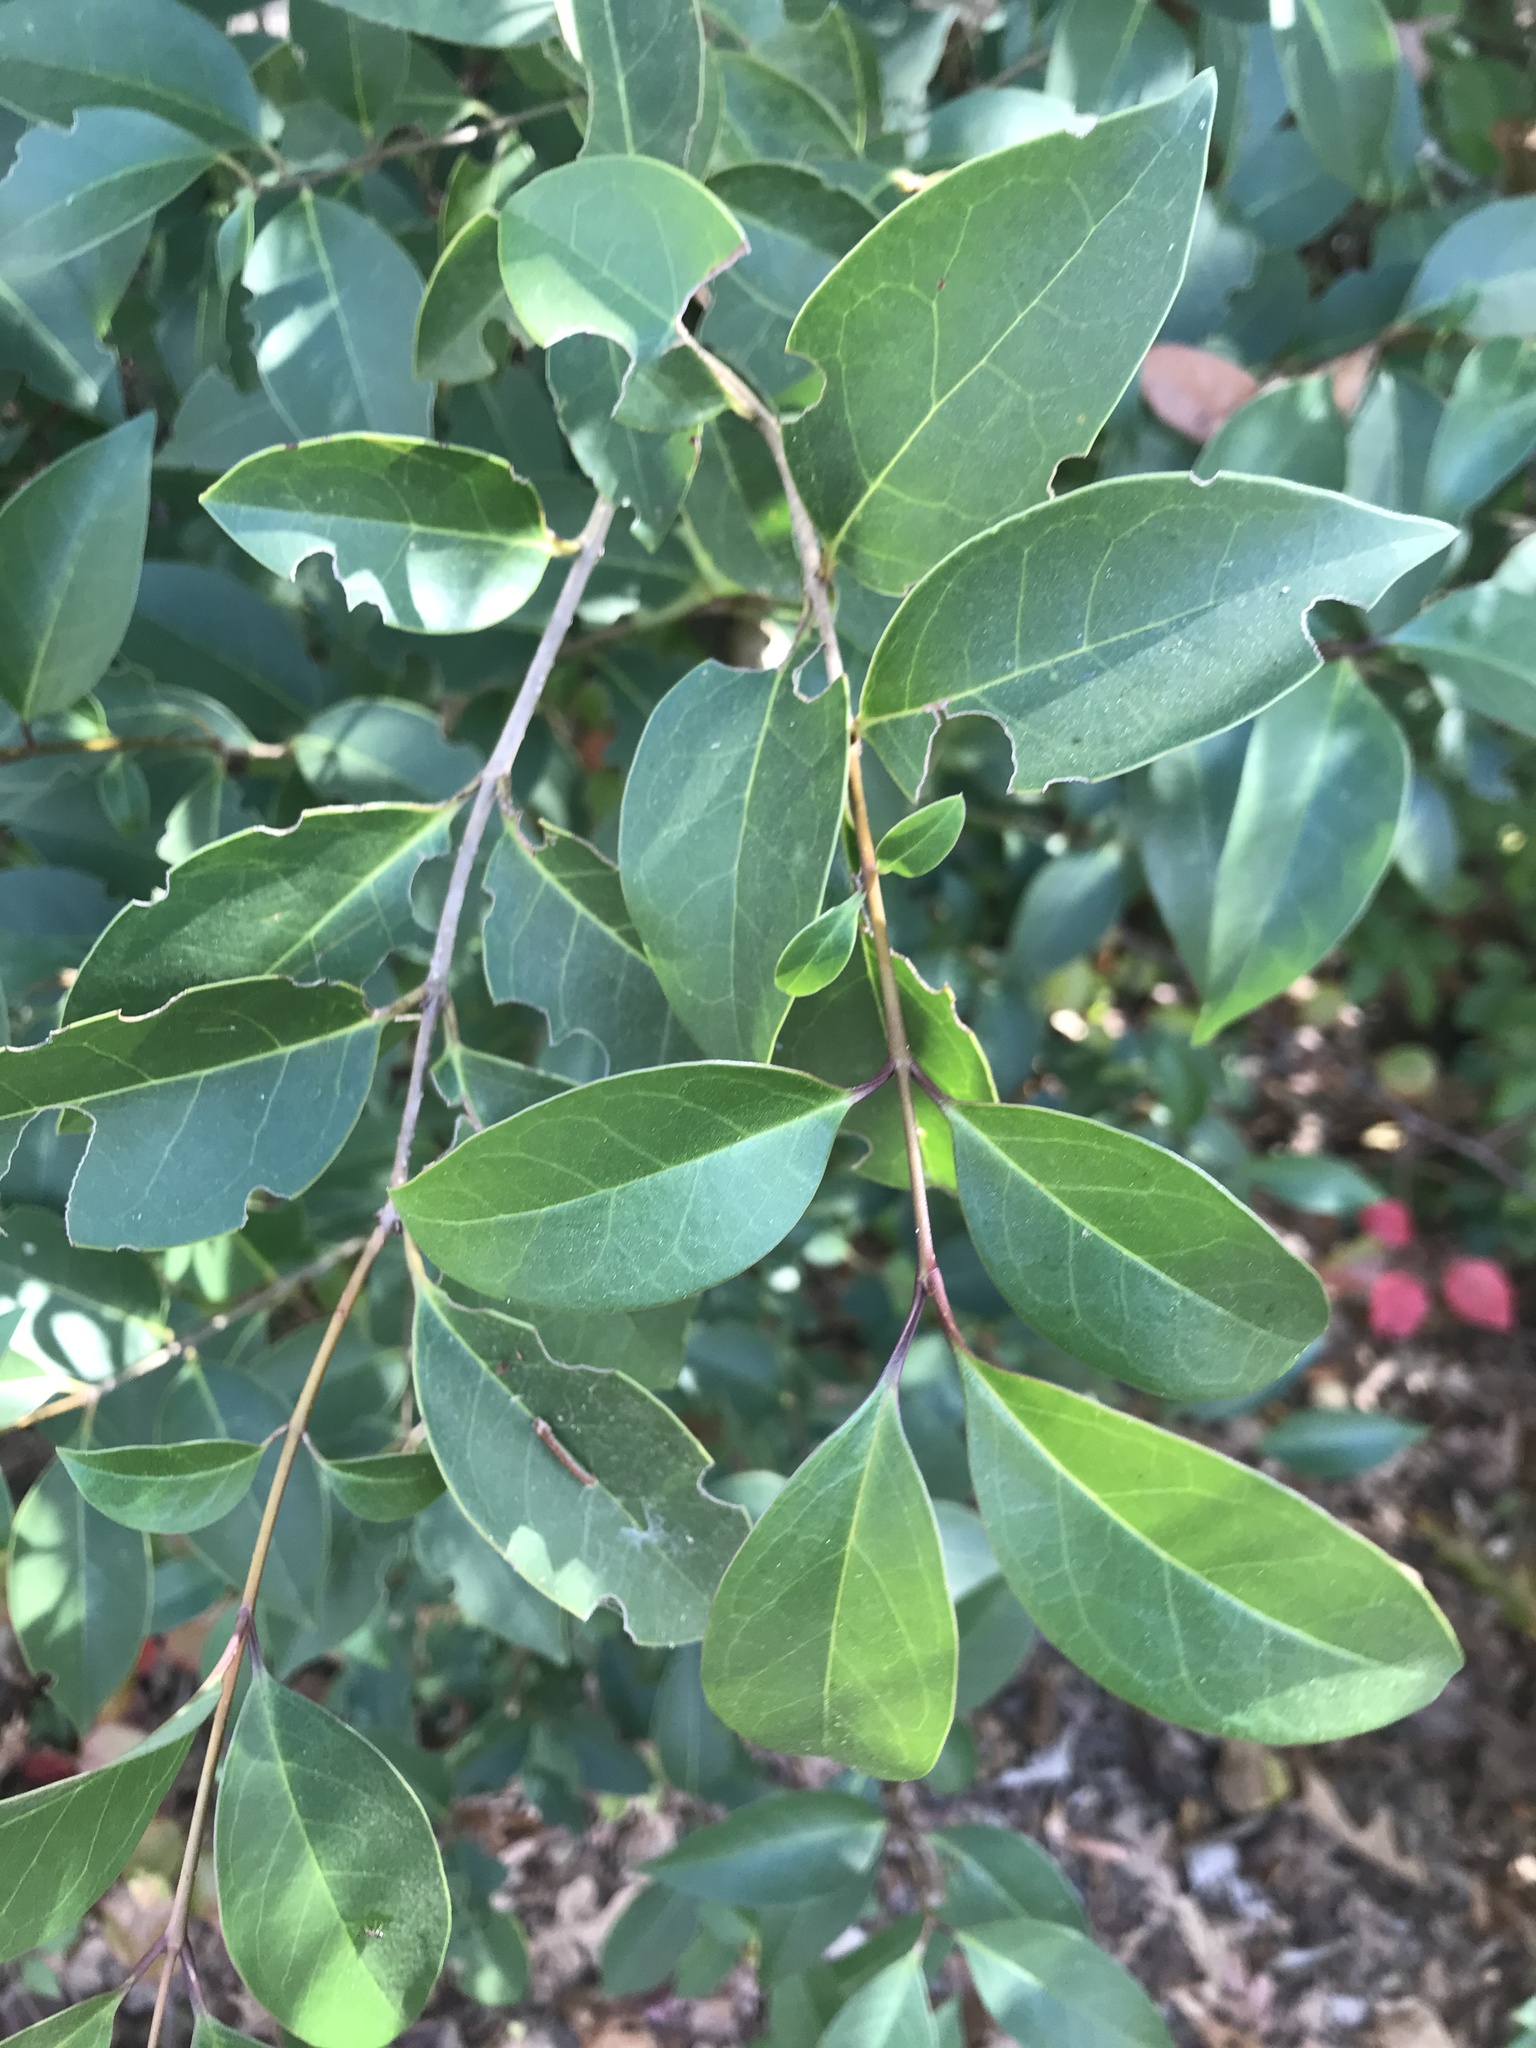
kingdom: Plantae
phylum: Tracheophyta
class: Magnoliopsida
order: Lamiales
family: Oleaceae
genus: Ligustrum
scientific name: Ligustrum lucidum
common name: Glossy privet
